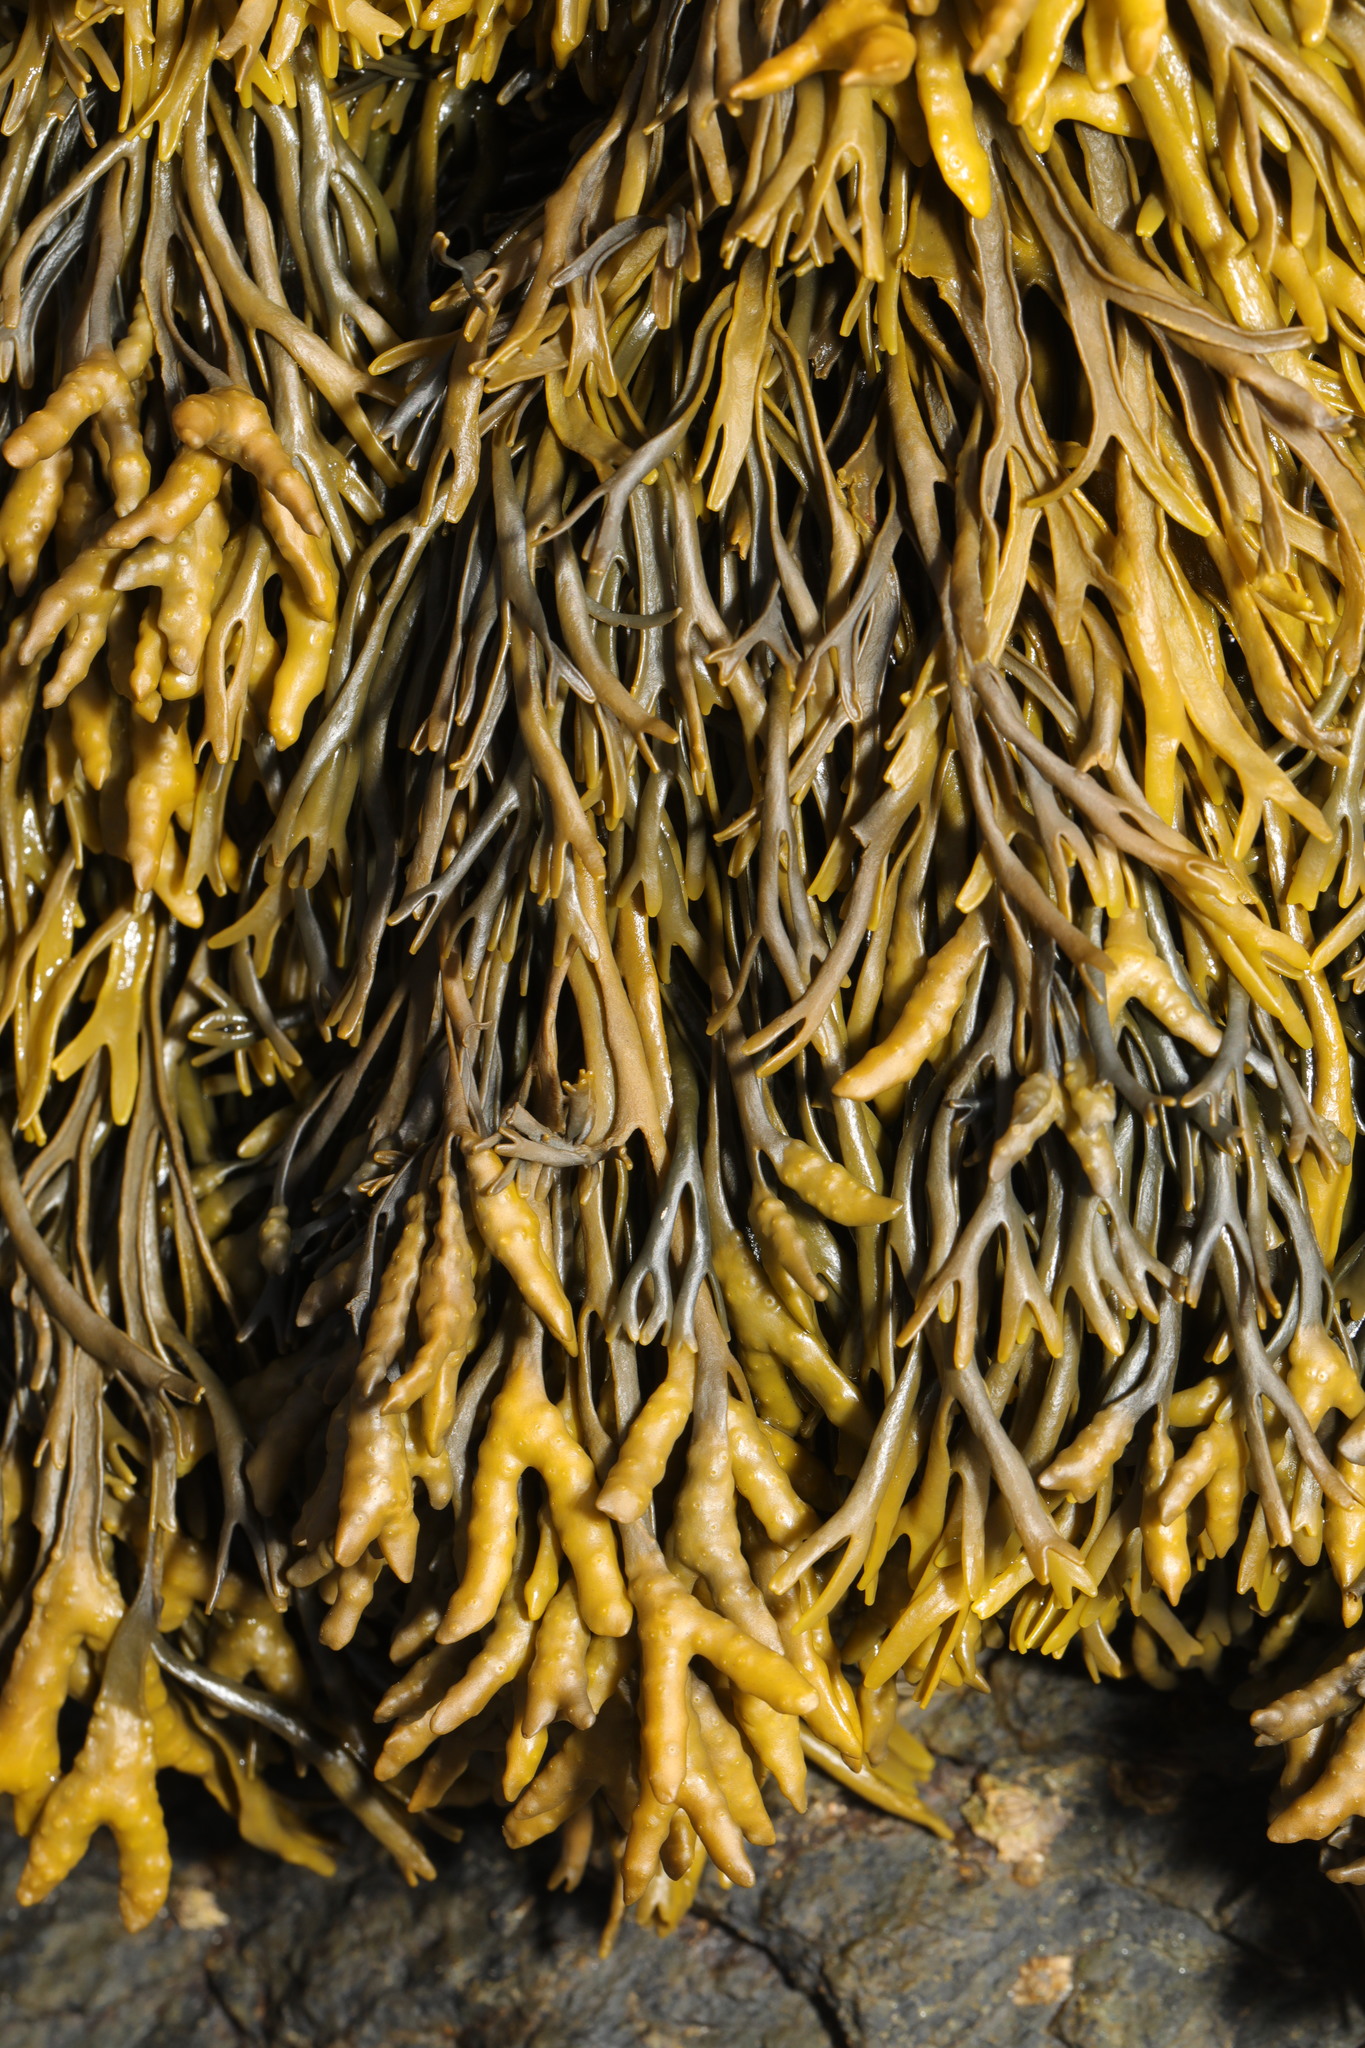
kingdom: Chromista
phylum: Ochrophyta
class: Phaeophyceae
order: Fucales
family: Fucaceae
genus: Pelvetia
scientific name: Pelvetia canaliculata
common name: Channelled wrack
